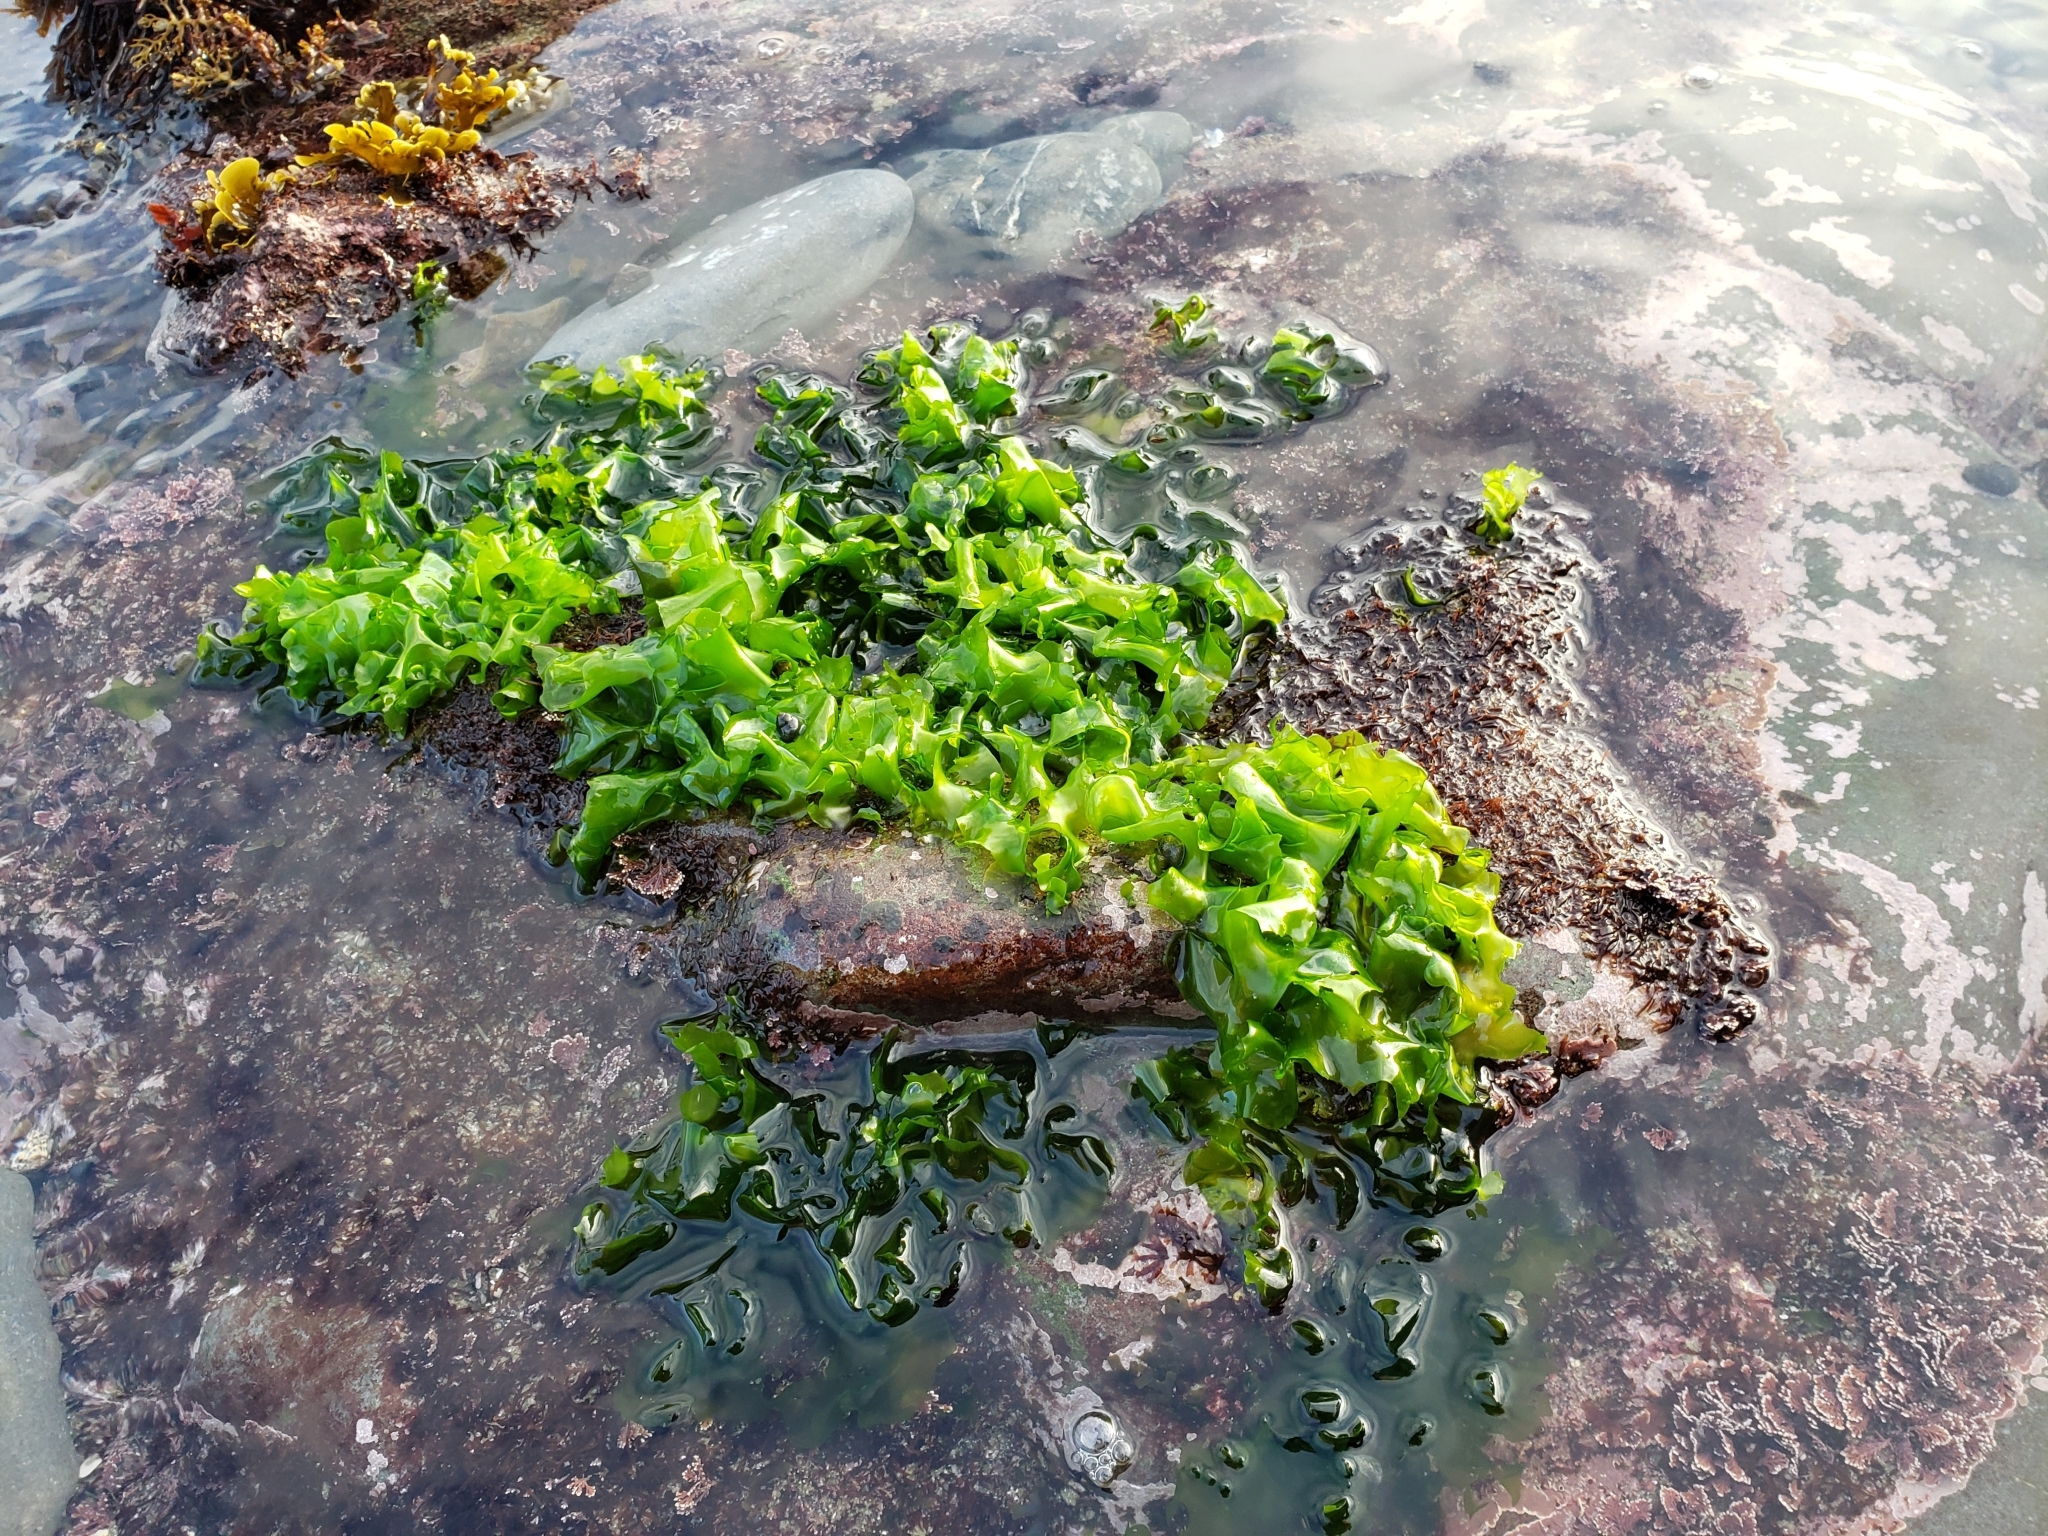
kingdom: Plantae
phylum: Chlorophyta
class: Ulvophyceae
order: Ulvales
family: Ulvaceae
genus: Ulva
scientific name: Ulva
